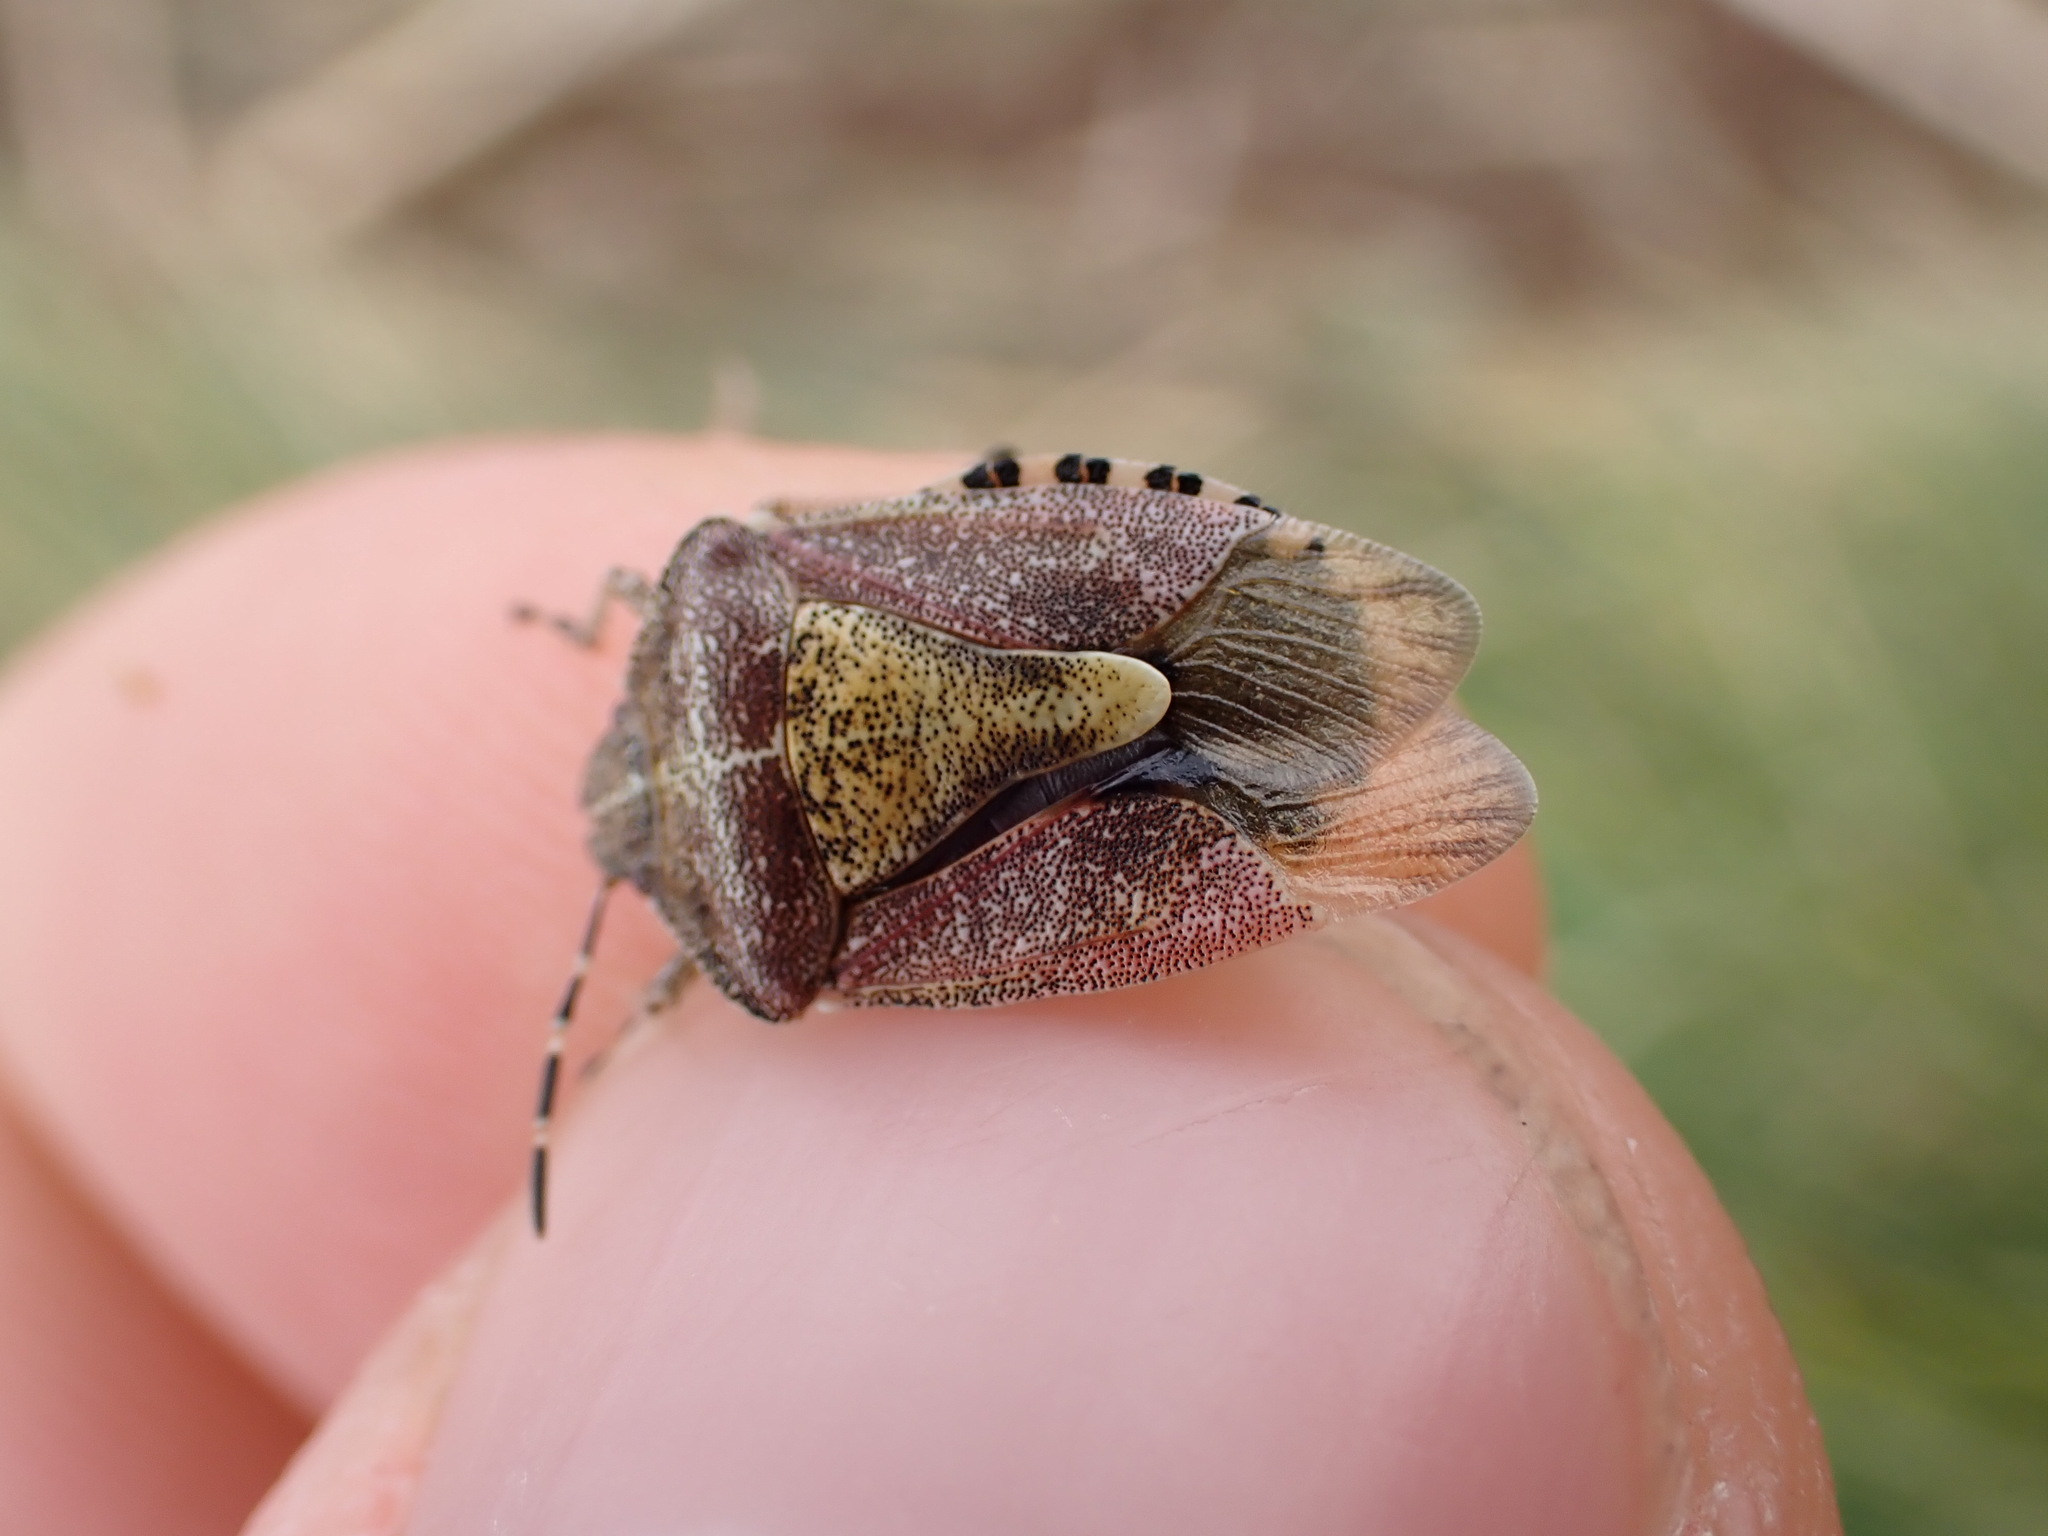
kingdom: Animalia
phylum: Arthropoda
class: Insecta
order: Hemiptera
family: Pentatomidae
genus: Dolycoris
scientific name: Dolycoris baccarum
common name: Sloe bug
